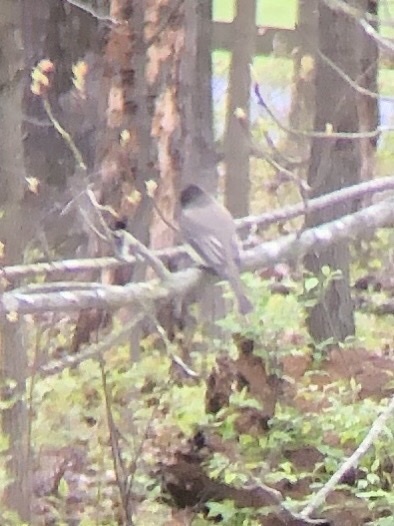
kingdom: Animalia
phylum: Chordata
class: Aves
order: Passeriformes
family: Tyrannidae
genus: Sayornis
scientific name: Sayornis phoebe
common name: Eastern phoebe
